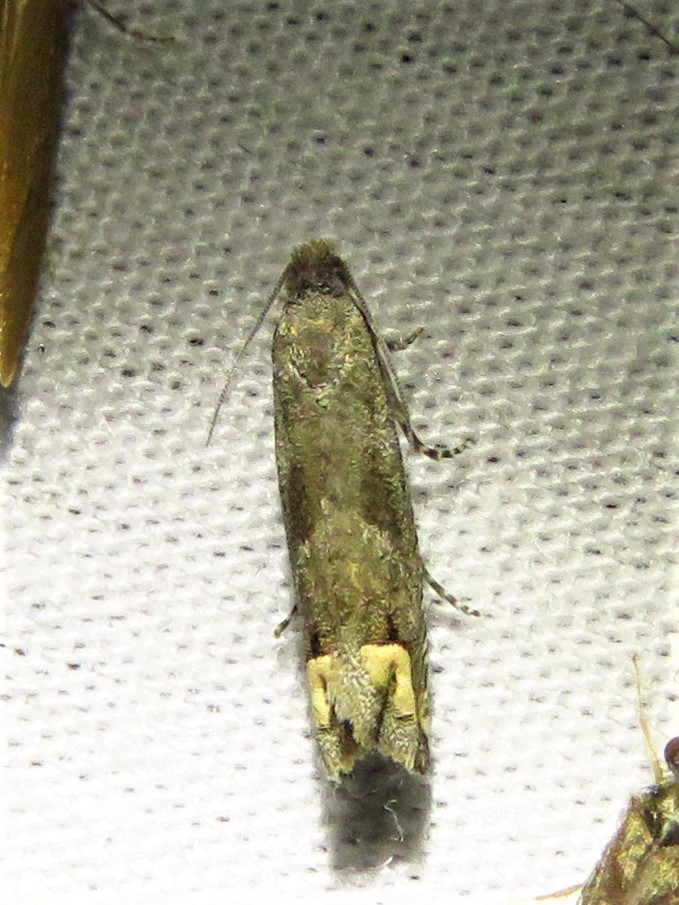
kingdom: Animalia
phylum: Arthropoda
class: Insecta
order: Lepidoptera
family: Tortricidae
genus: Epiblema
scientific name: Epiblema strenuana
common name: Ragweed borer moth
